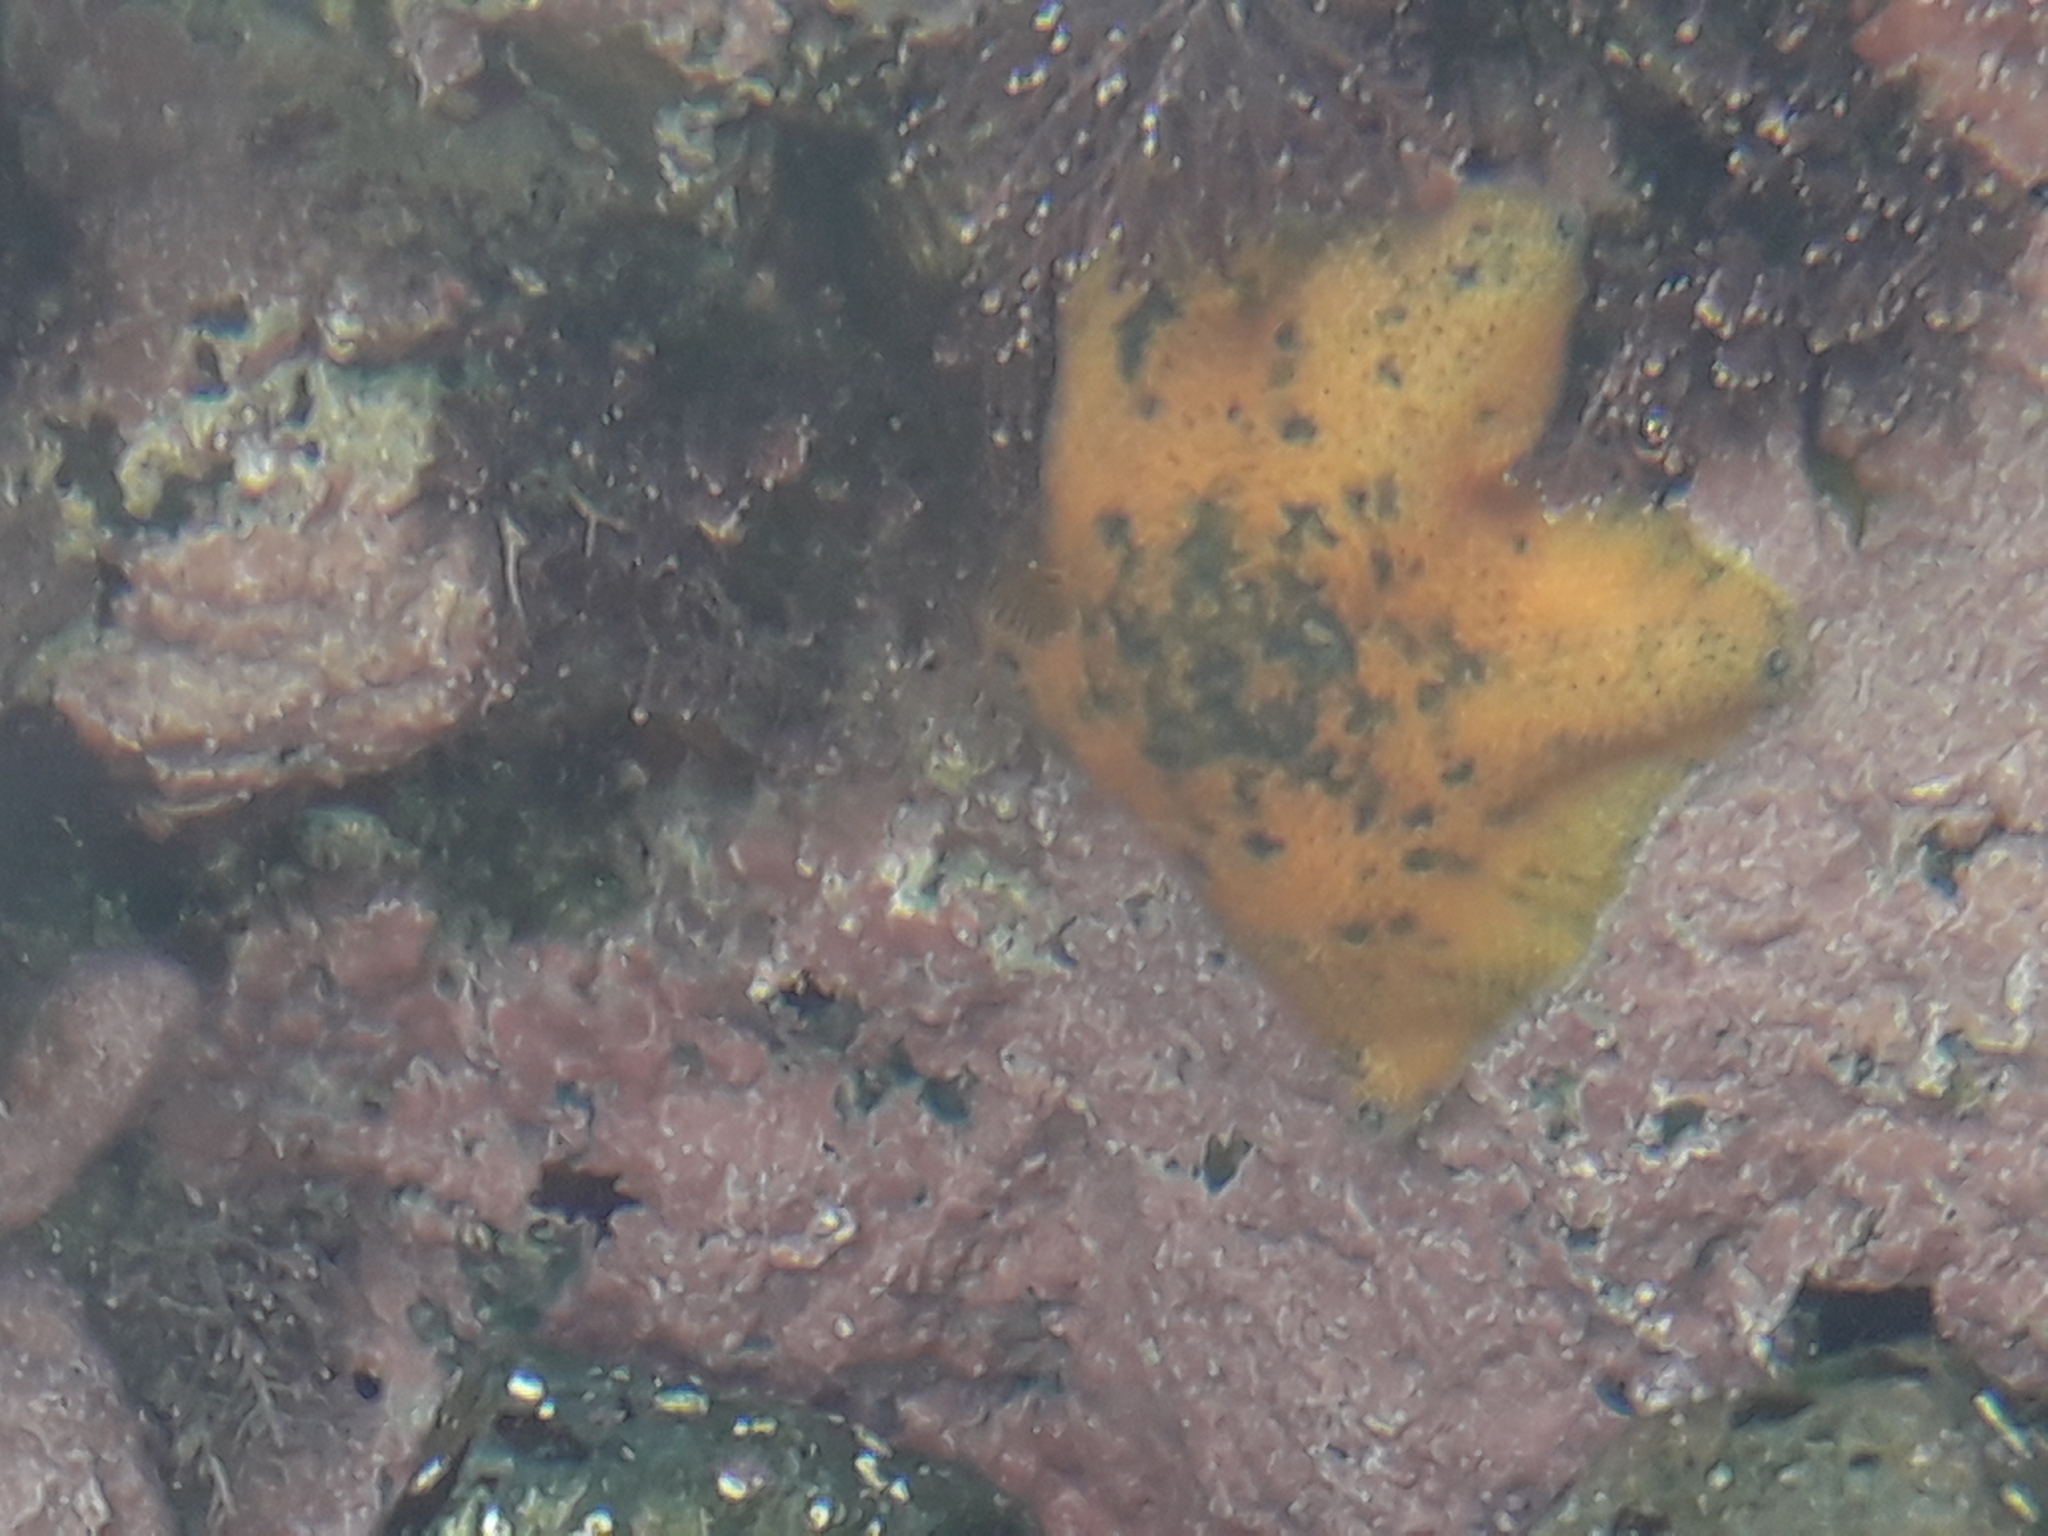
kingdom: Animalia
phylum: Echinodermata
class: Asteroidea
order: Valvatida
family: Asterinidae
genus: Patiriella
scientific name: Patiriella regularis
